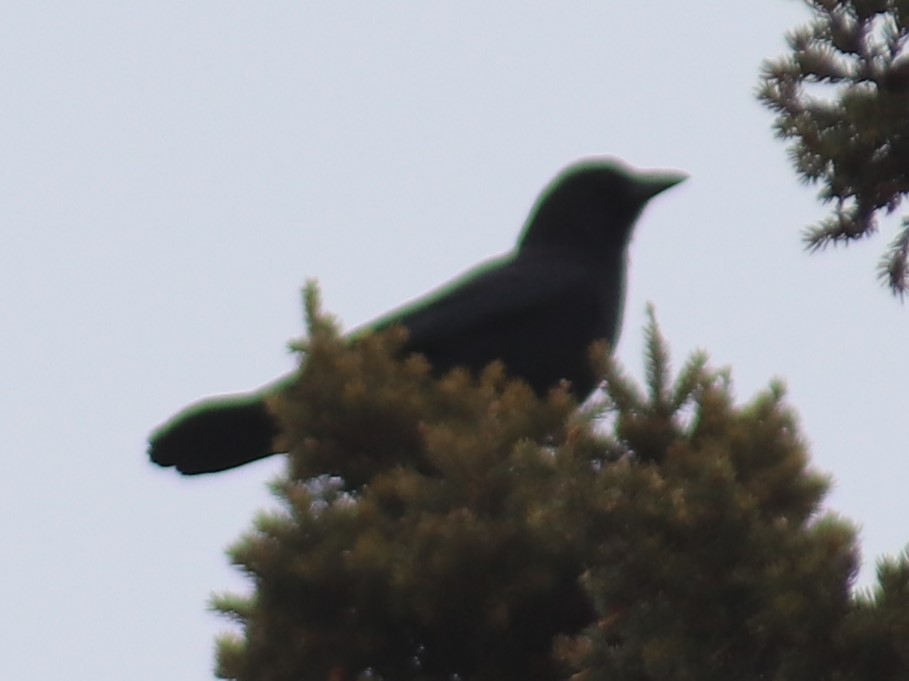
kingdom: Animalia
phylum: Chordata
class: Aves
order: Passeriformes
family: Corvidae
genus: Corvus
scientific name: Corvus brachyrhynchos
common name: American crow
